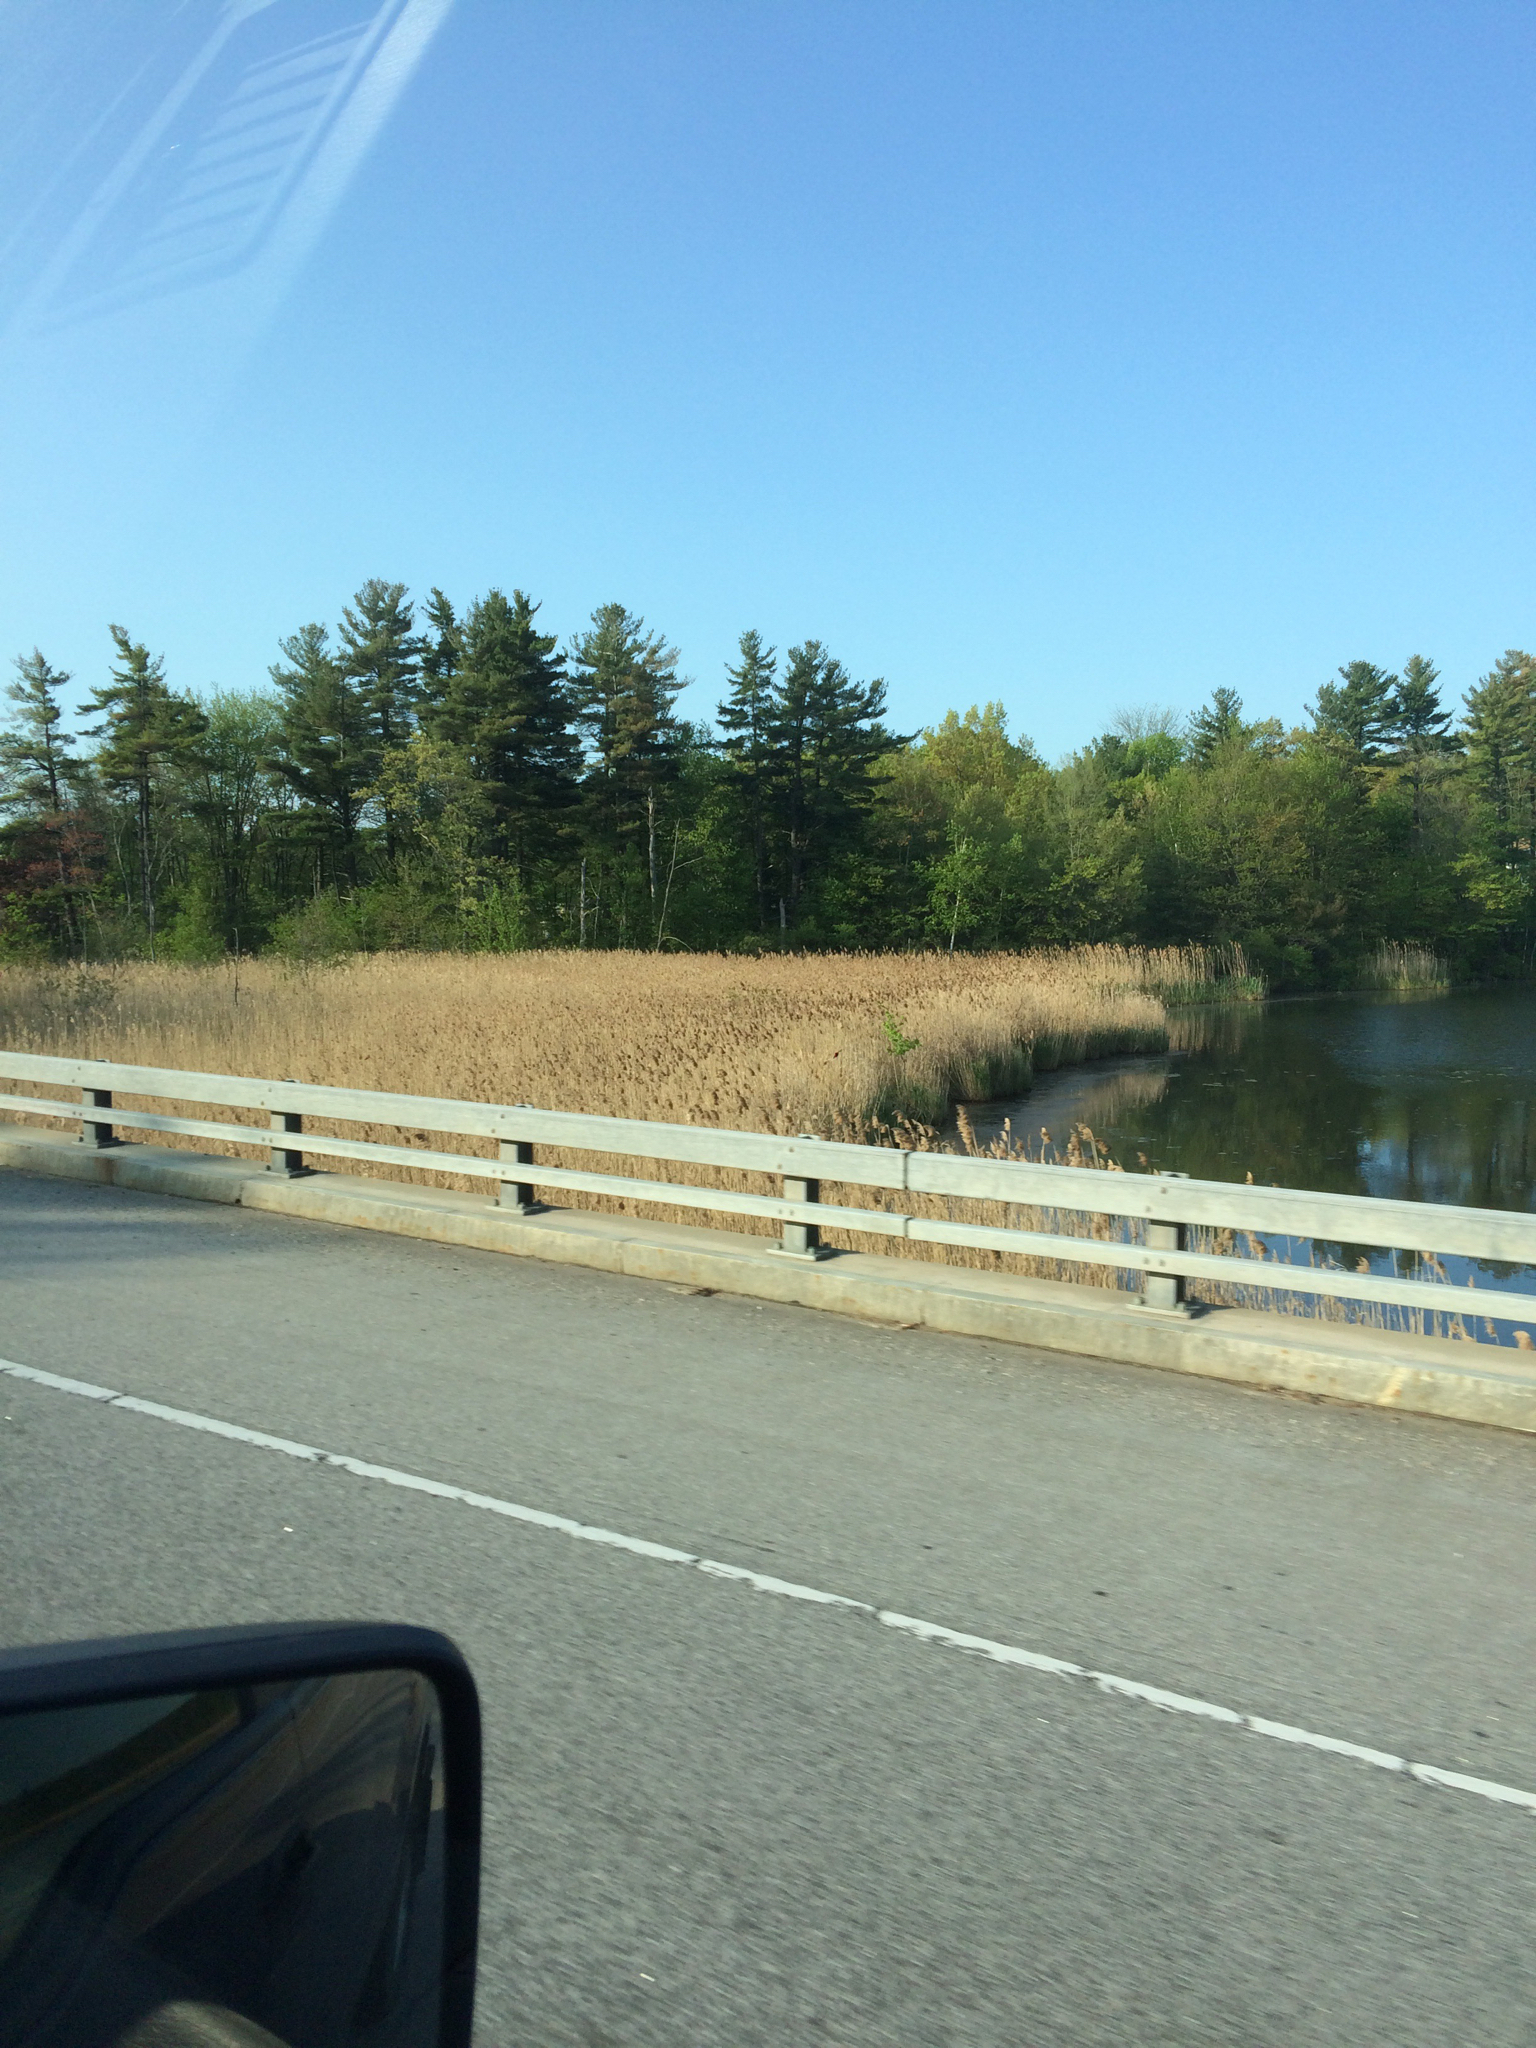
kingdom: Plantae
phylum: Tracheophyta
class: Pinopsida
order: Pinales
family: Pinaceae
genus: Pinus
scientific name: Pinus strobus
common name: Weymouth pine
